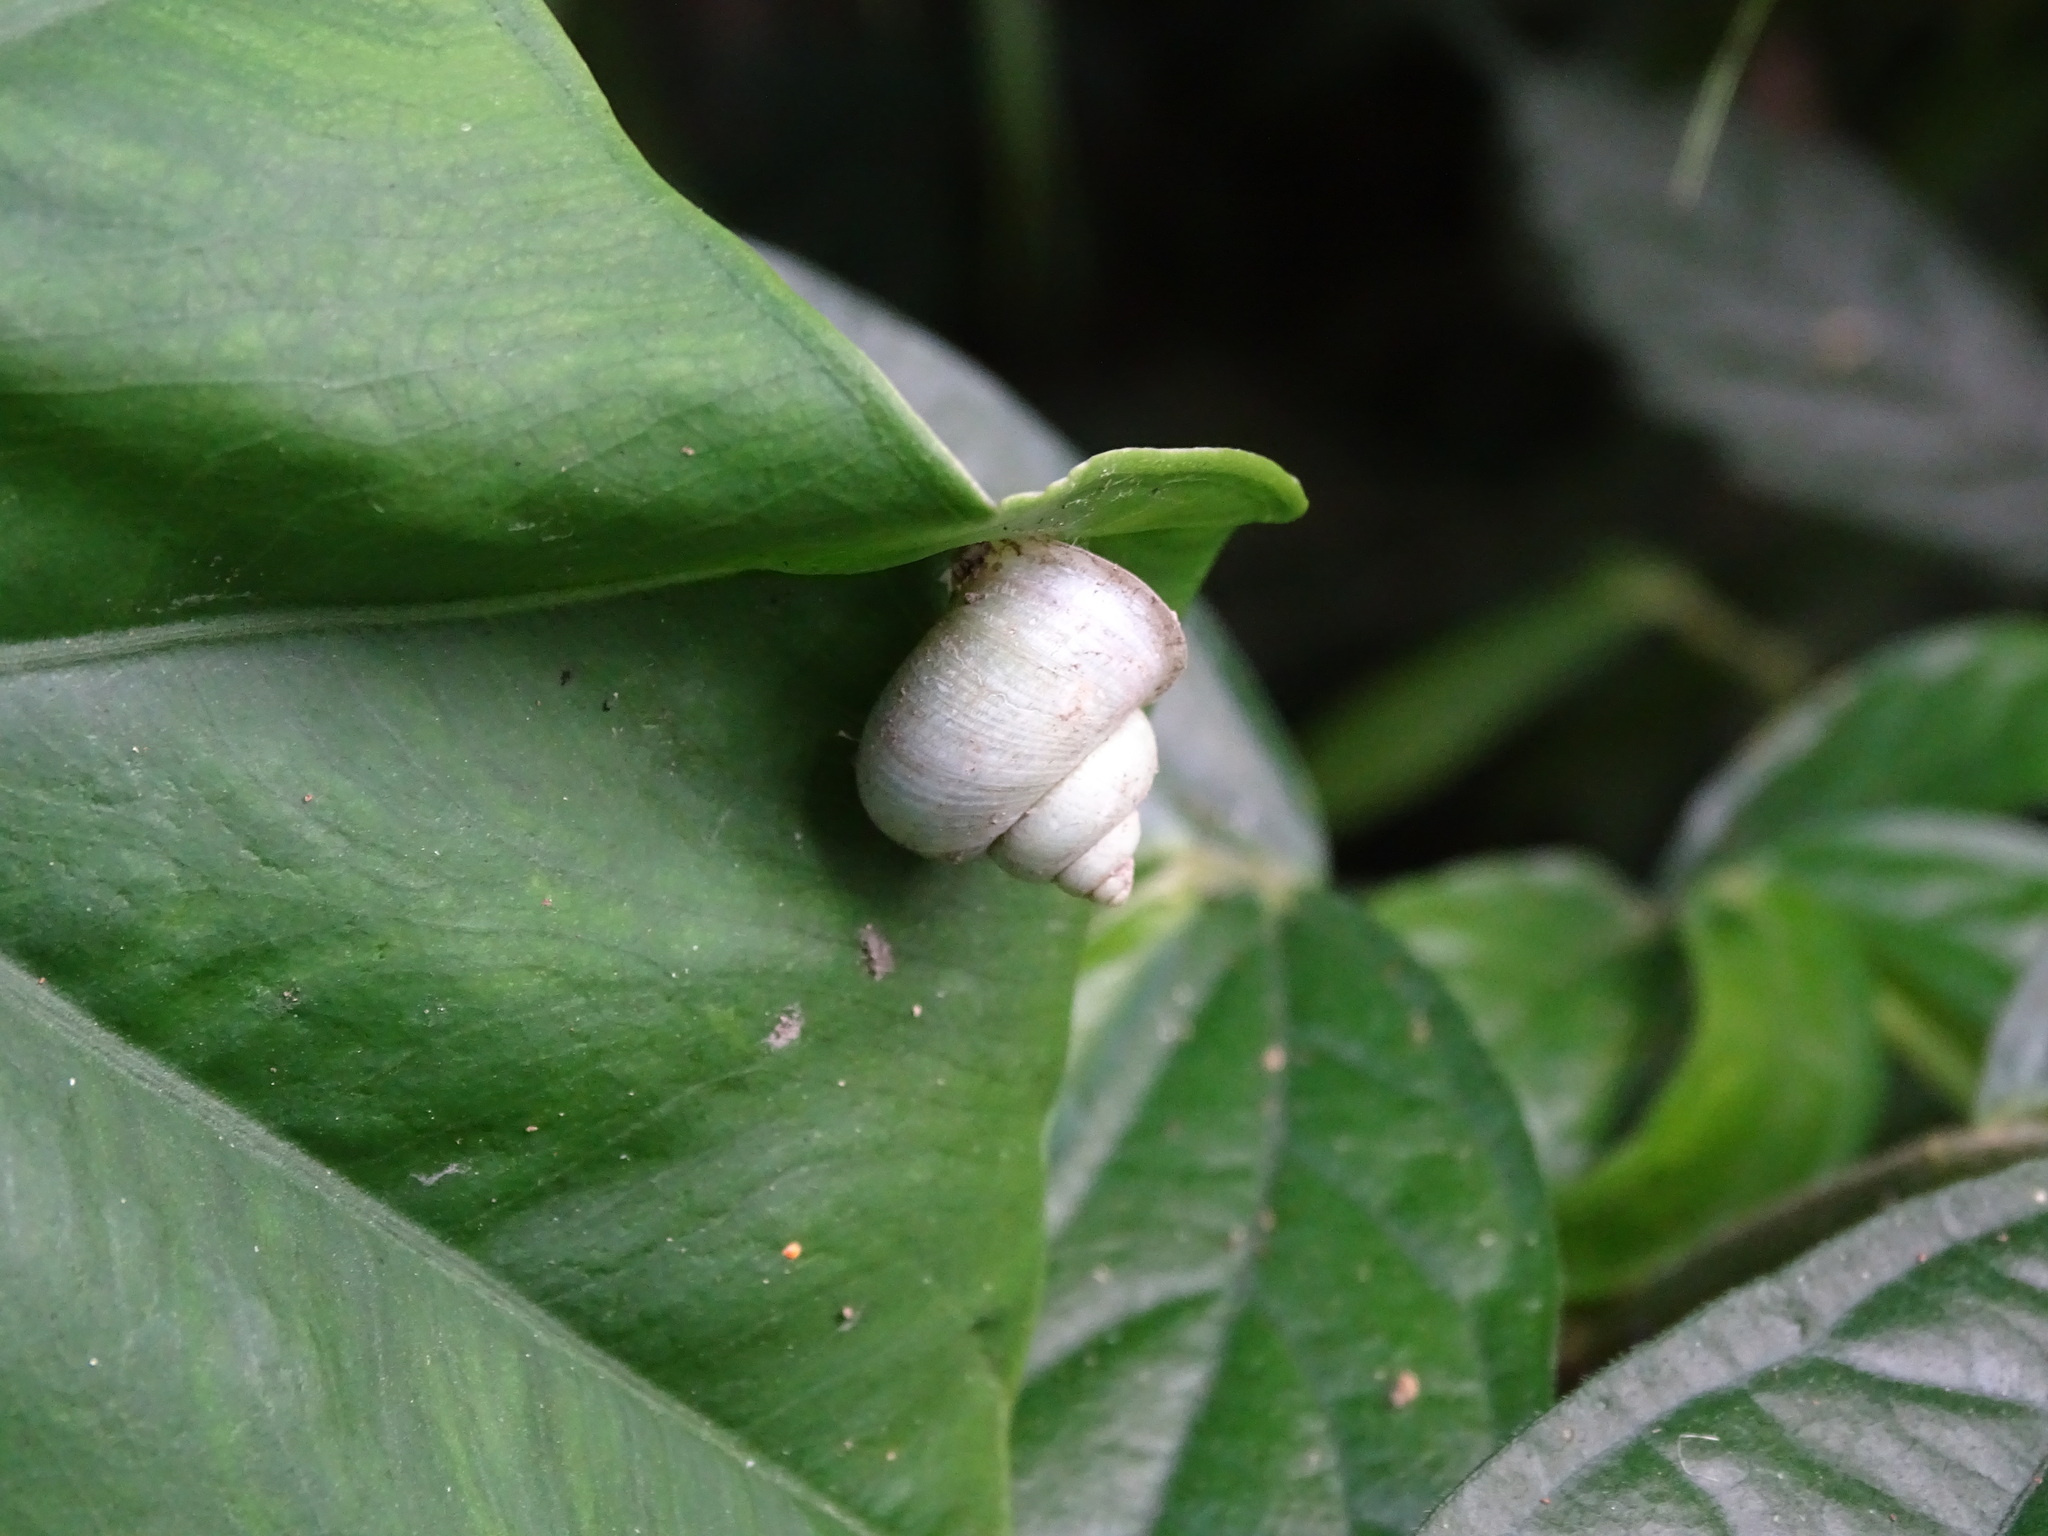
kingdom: Animalia
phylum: Mollusca
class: Gastropoda
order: Architaenioglossa
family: Cyclophoridae
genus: Leptopoma
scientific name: Leptopoma nitidum
